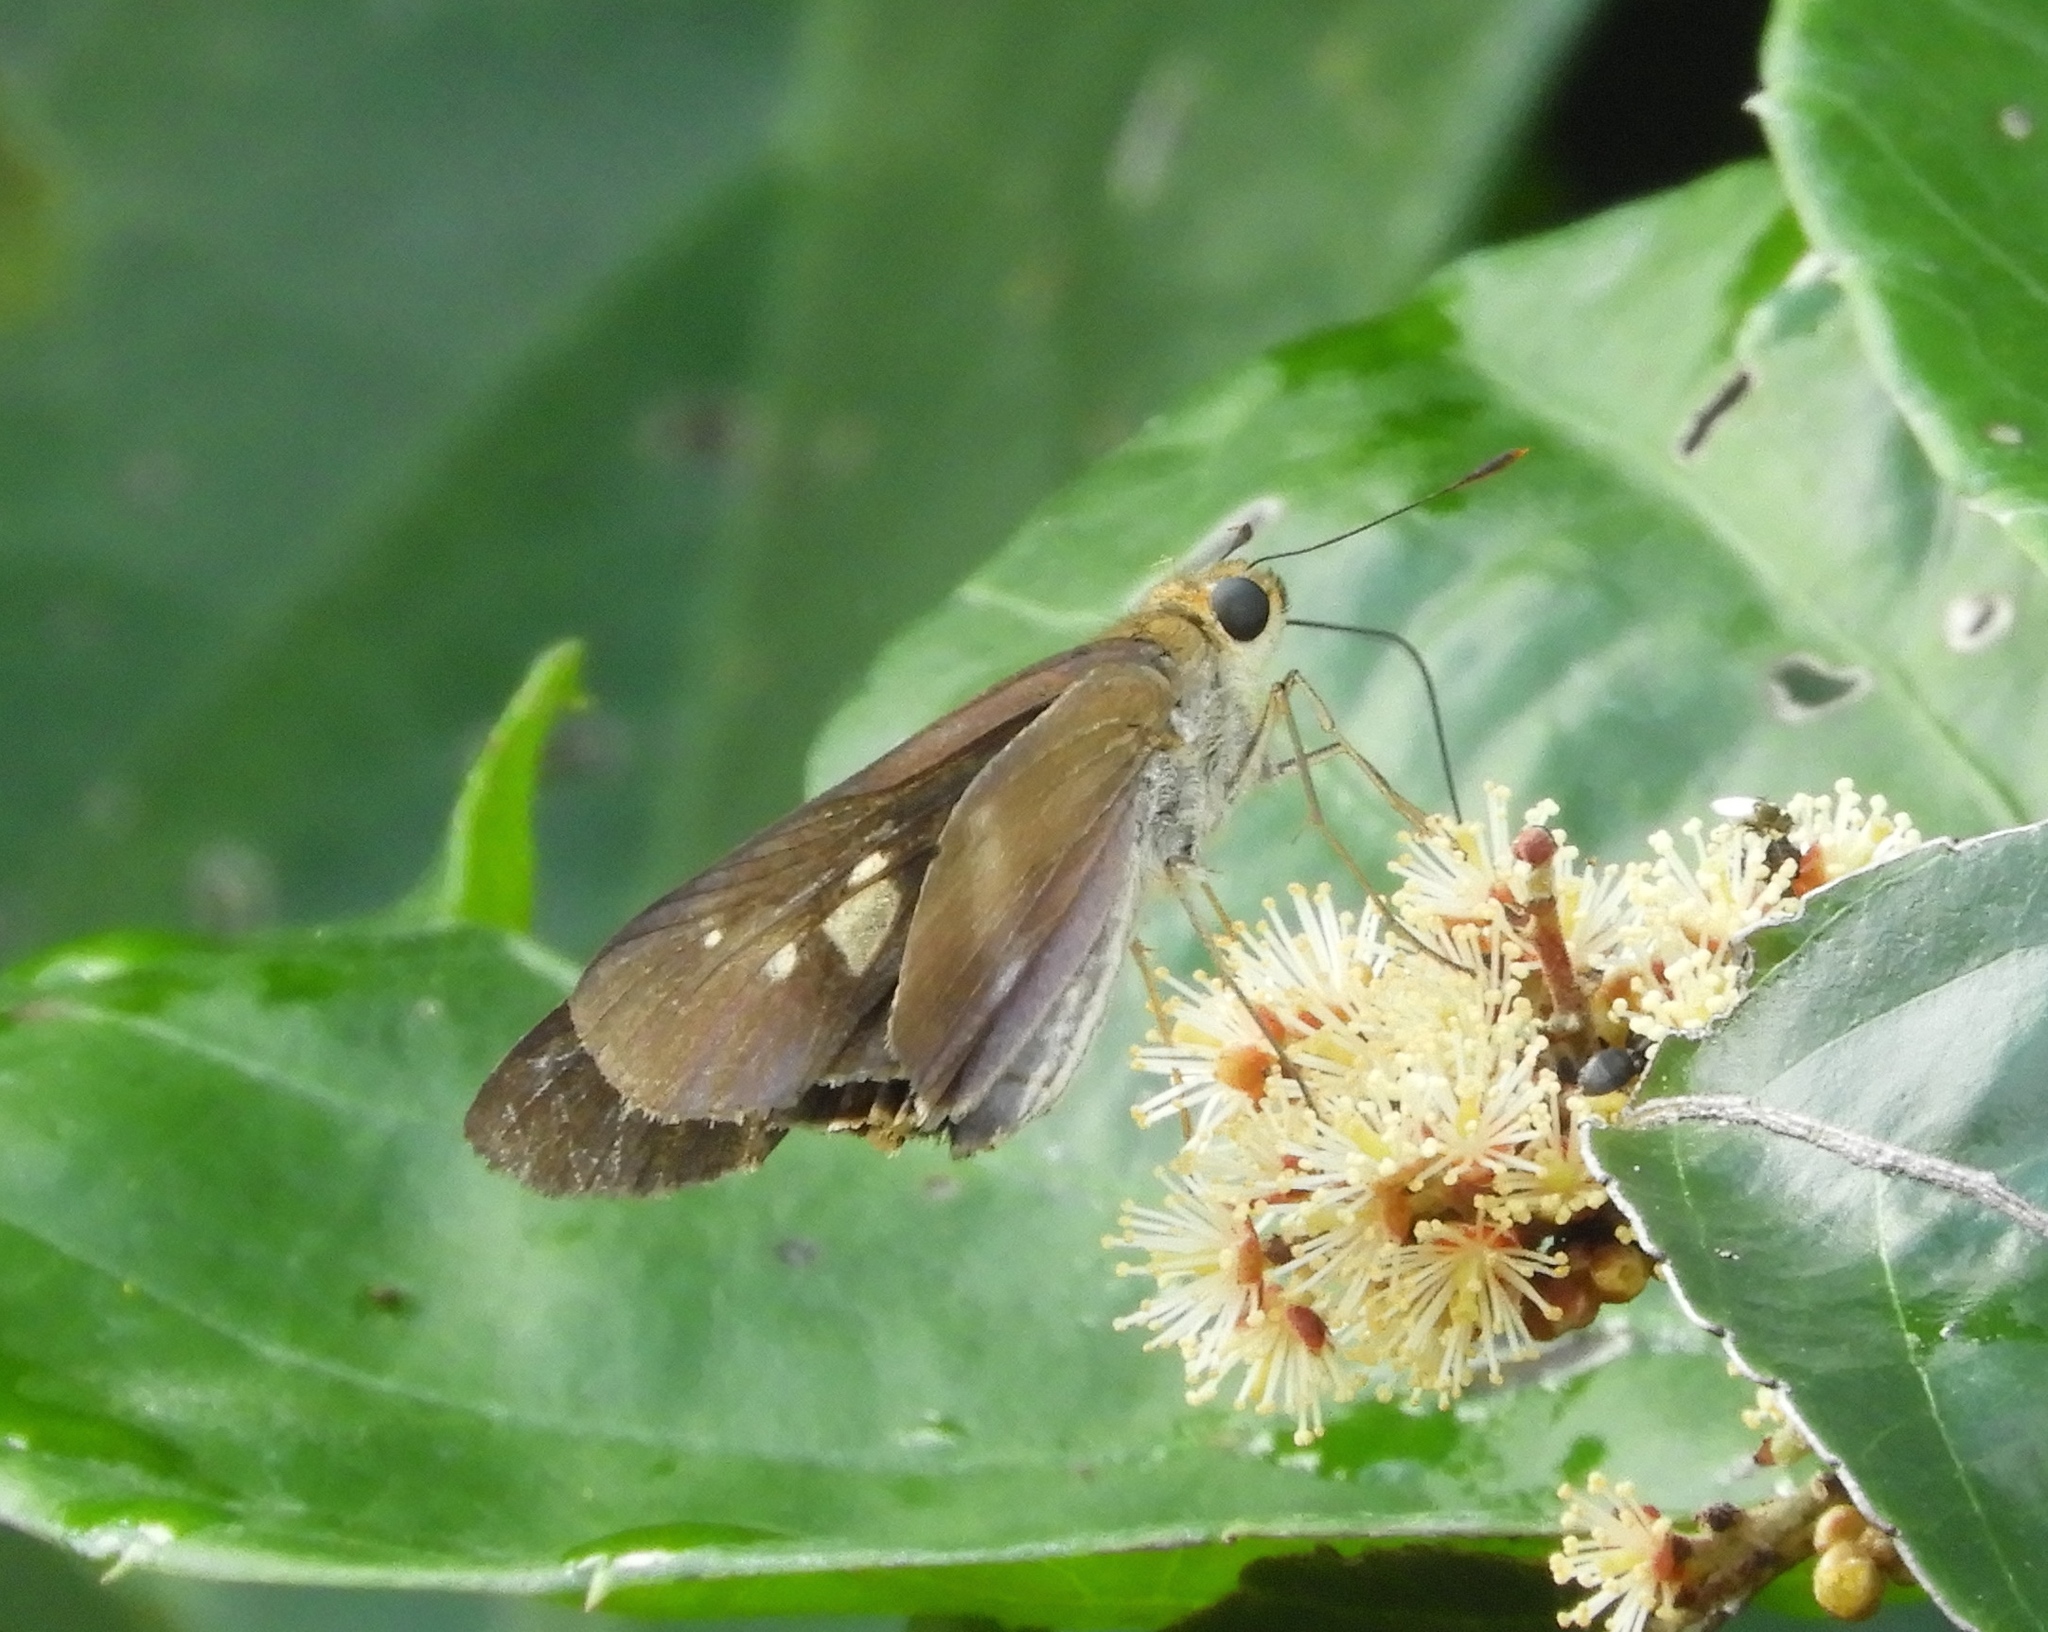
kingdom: Animalia
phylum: Arthropoda
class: Insecta
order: Lepidoptera
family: Hesperiidae
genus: Panoquina
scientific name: Panoquina
